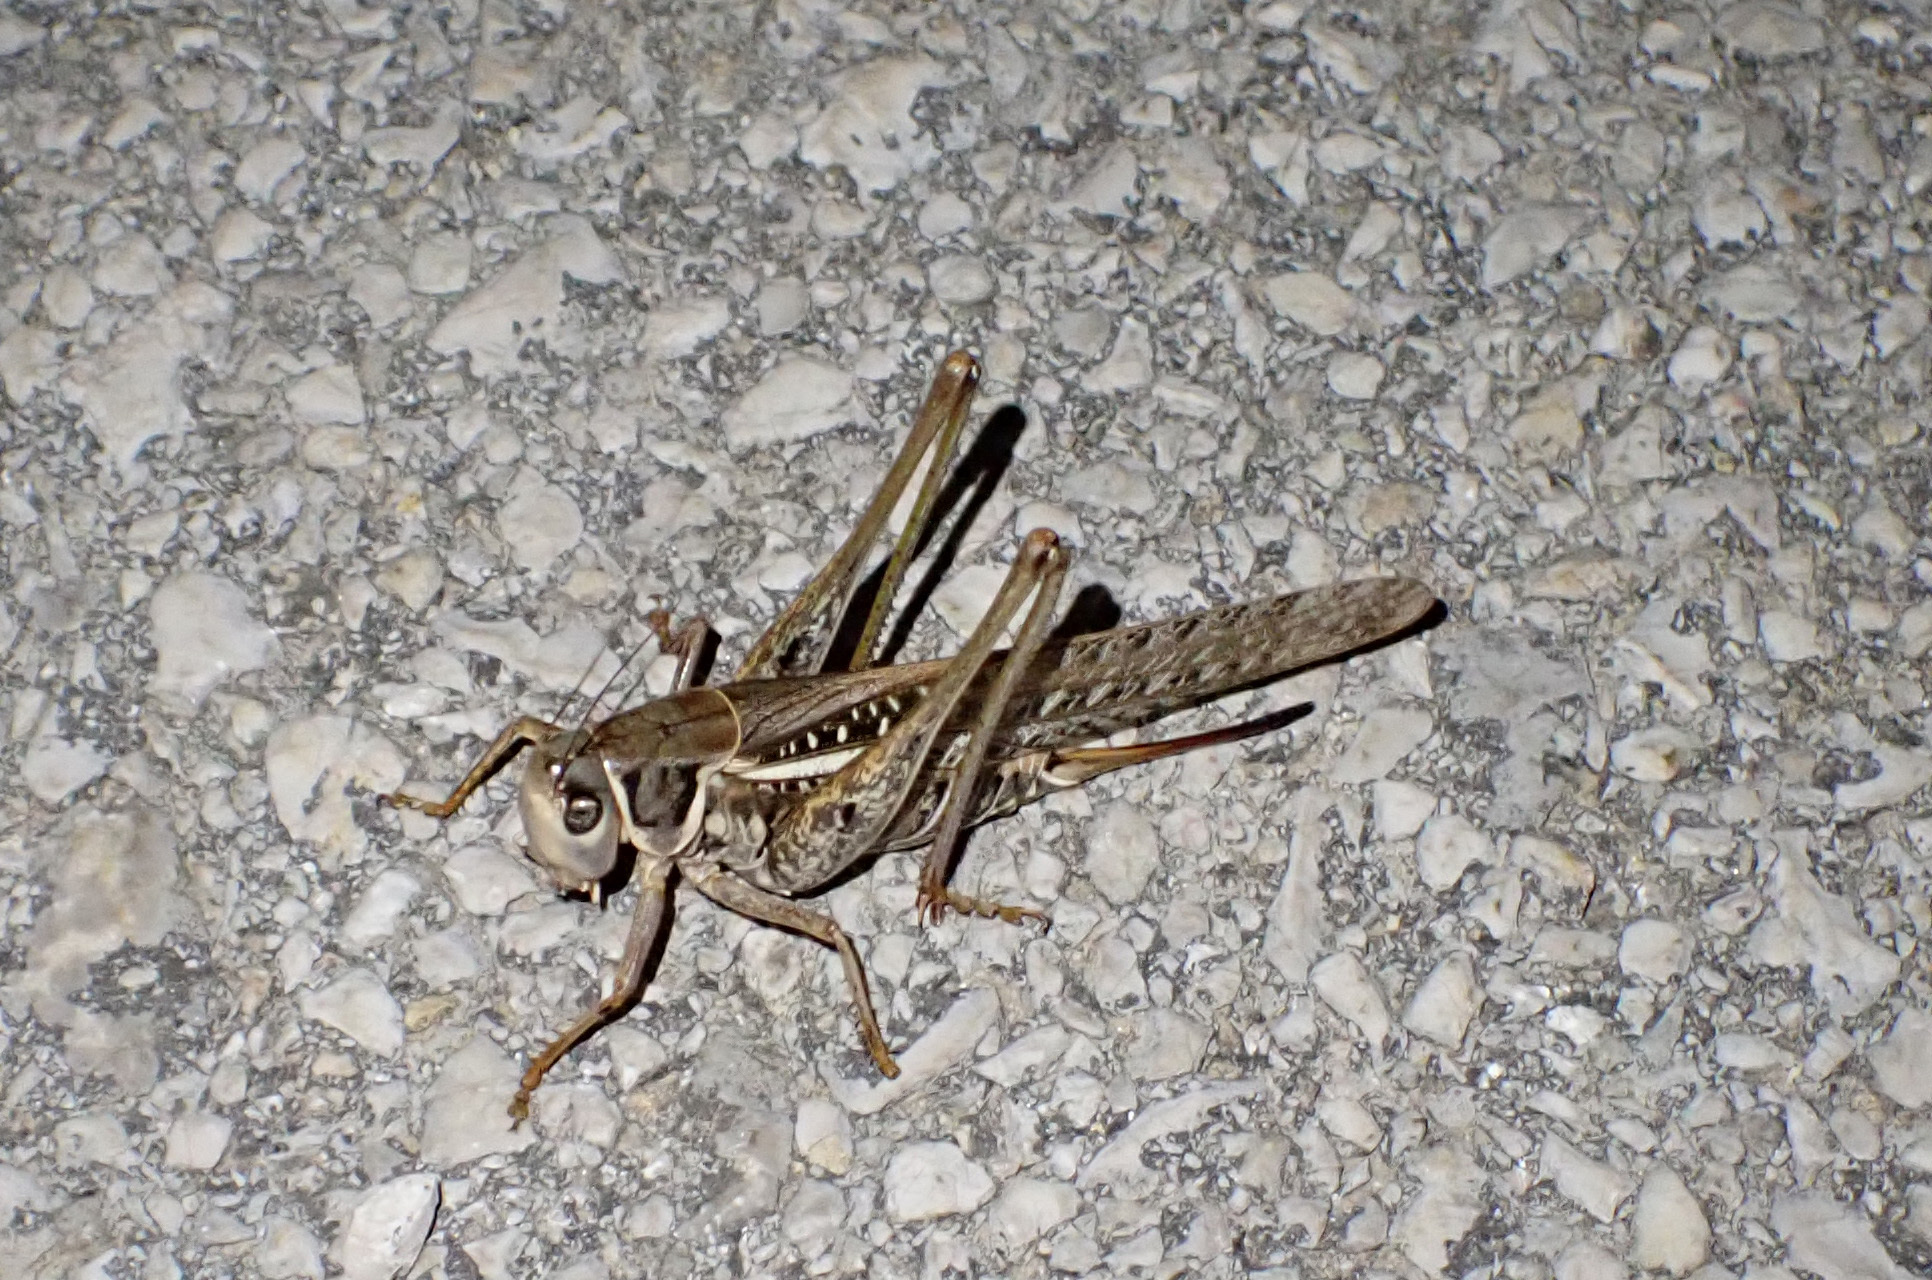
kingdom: Animalia
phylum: Arthropoda
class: Insecta
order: Orthoptera
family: Tettigoniidae
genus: Decticus
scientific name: Decticus albifrons
